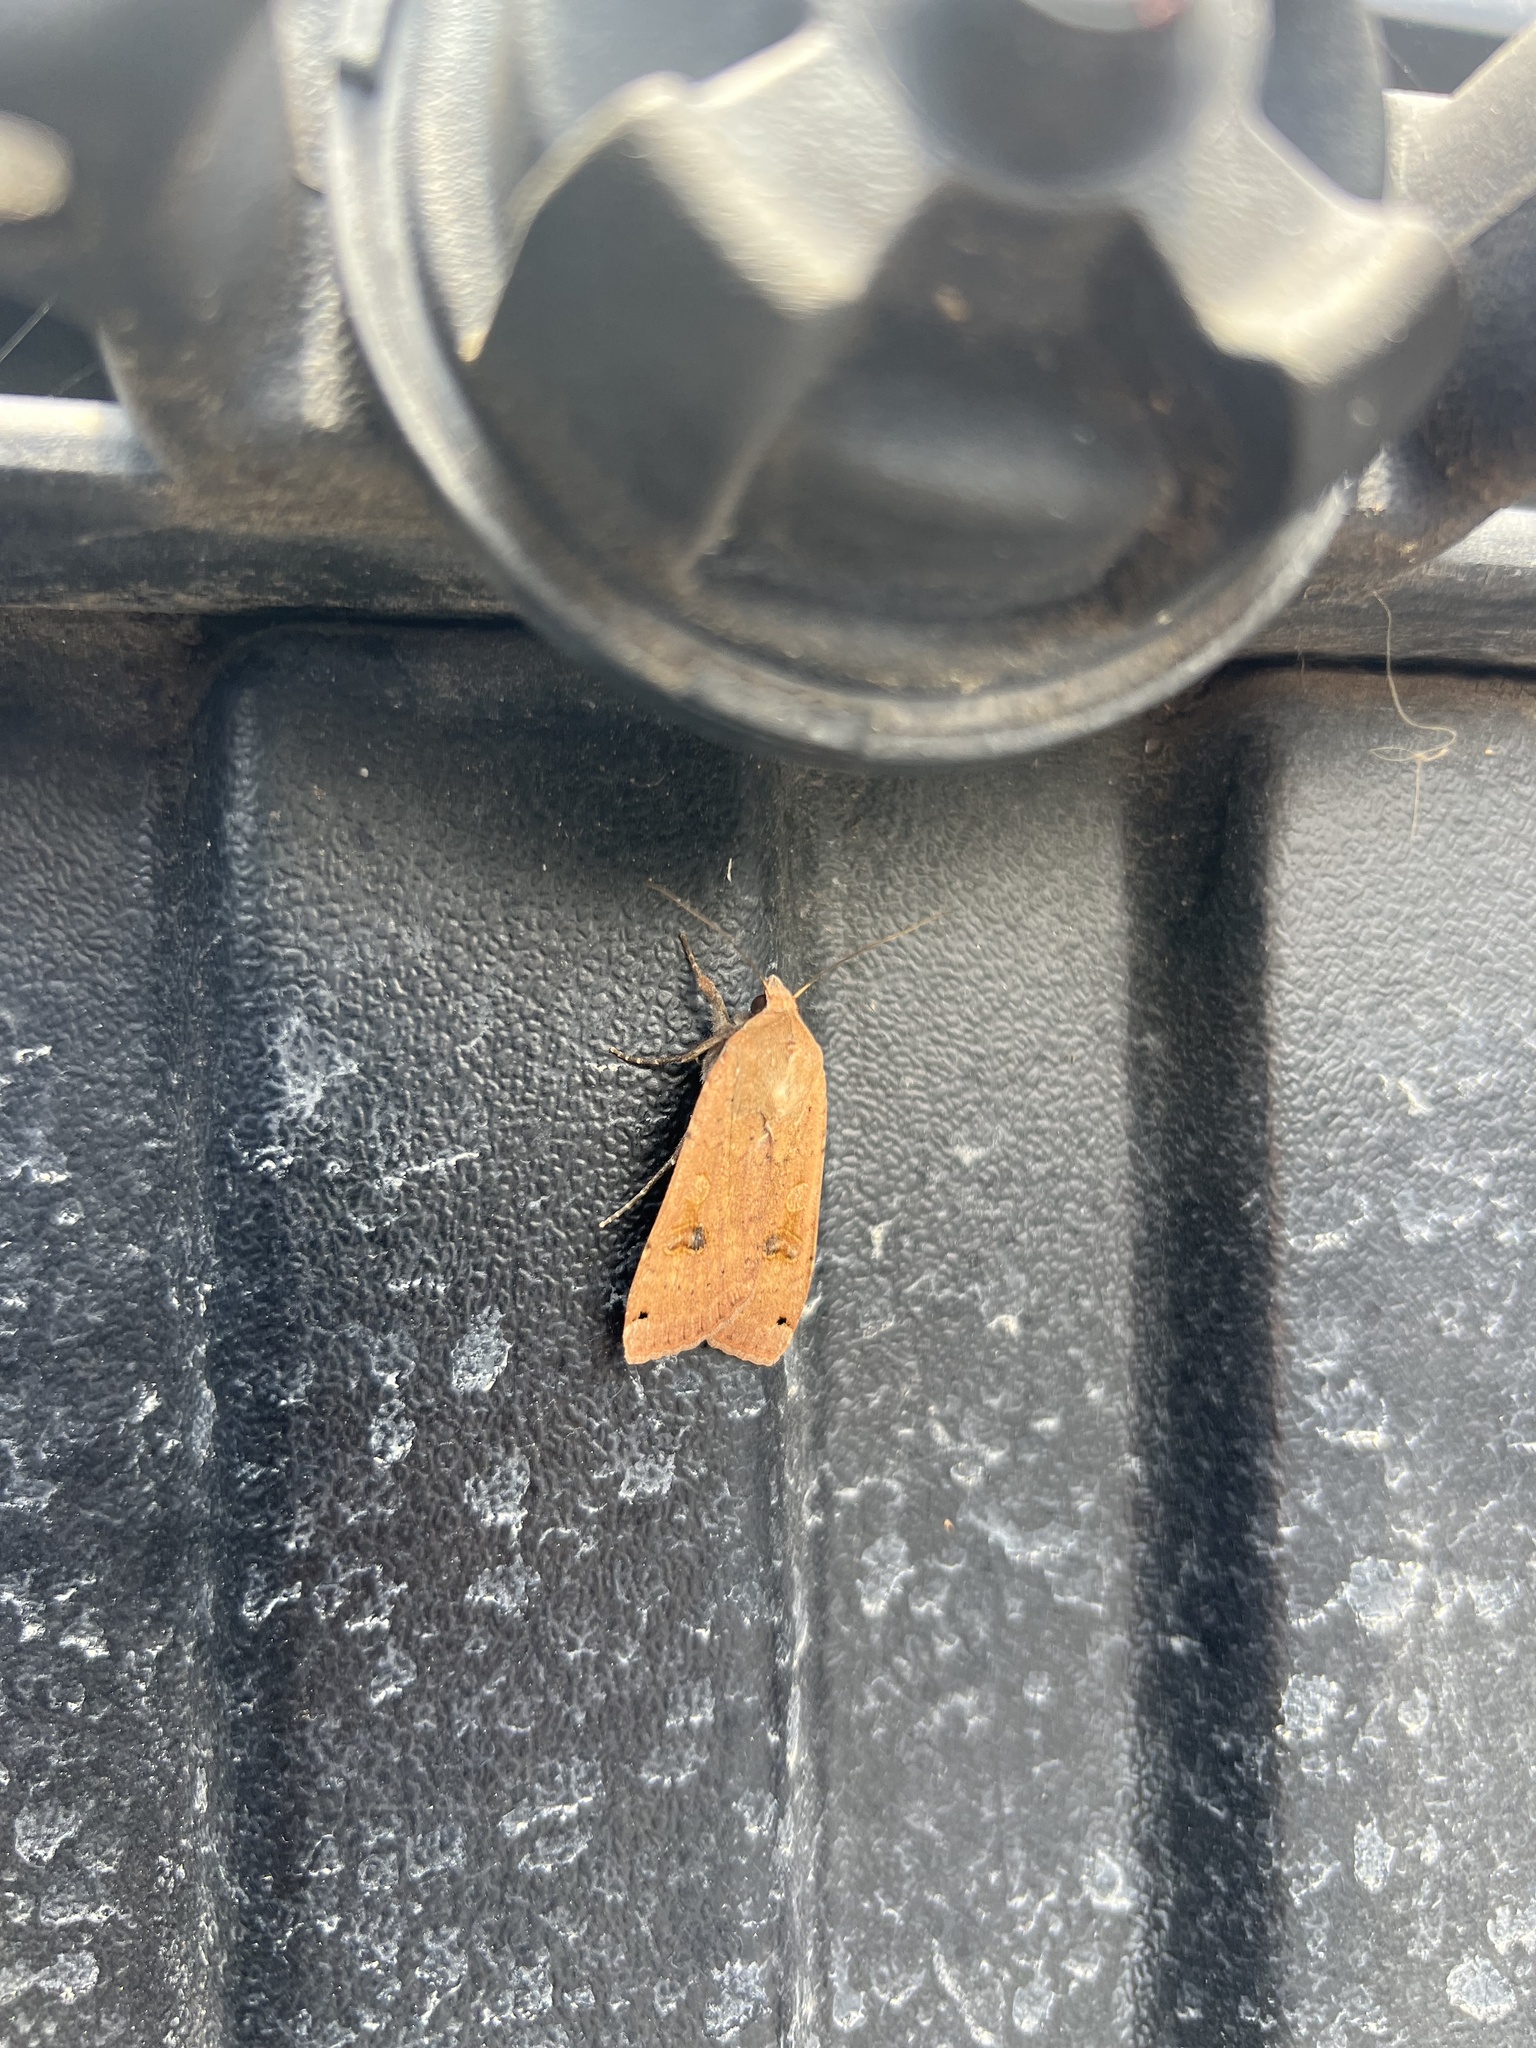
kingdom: Animalia
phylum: Arthropoda
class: Insecta
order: Lepidoptera
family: Noctuidae
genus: Noctua
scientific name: Noctua pronuba
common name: Large yellow underwing
